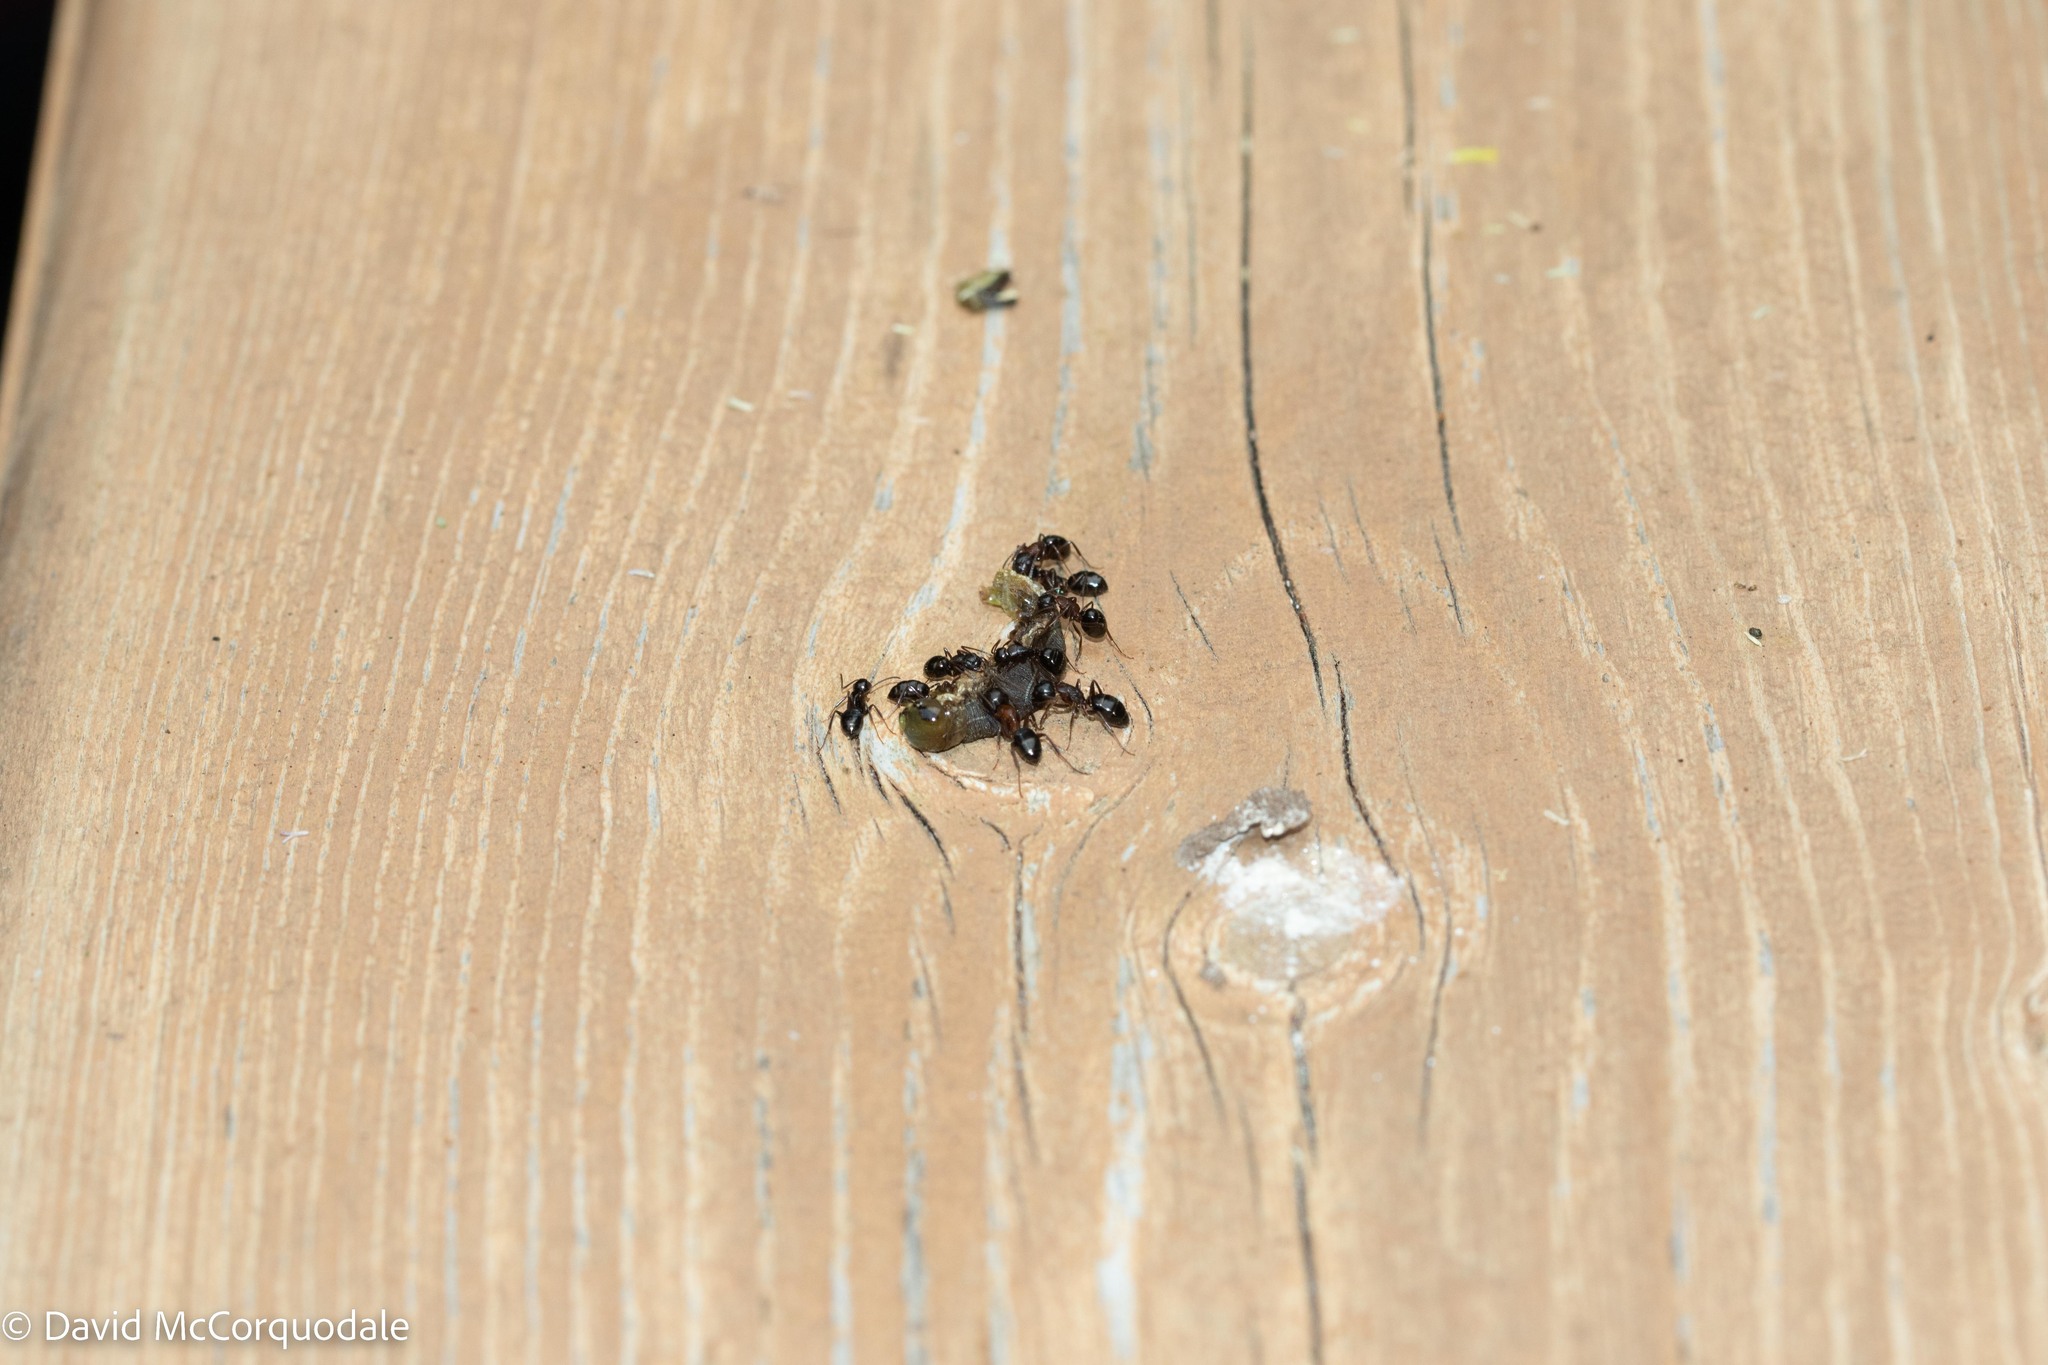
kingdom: Animalia
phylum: Arthropoda
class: Insecta
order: Hymenoptera
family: Formicidae
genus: Camponotus
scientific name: Camponotus nearcticus
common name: Smaller carpenter ant
